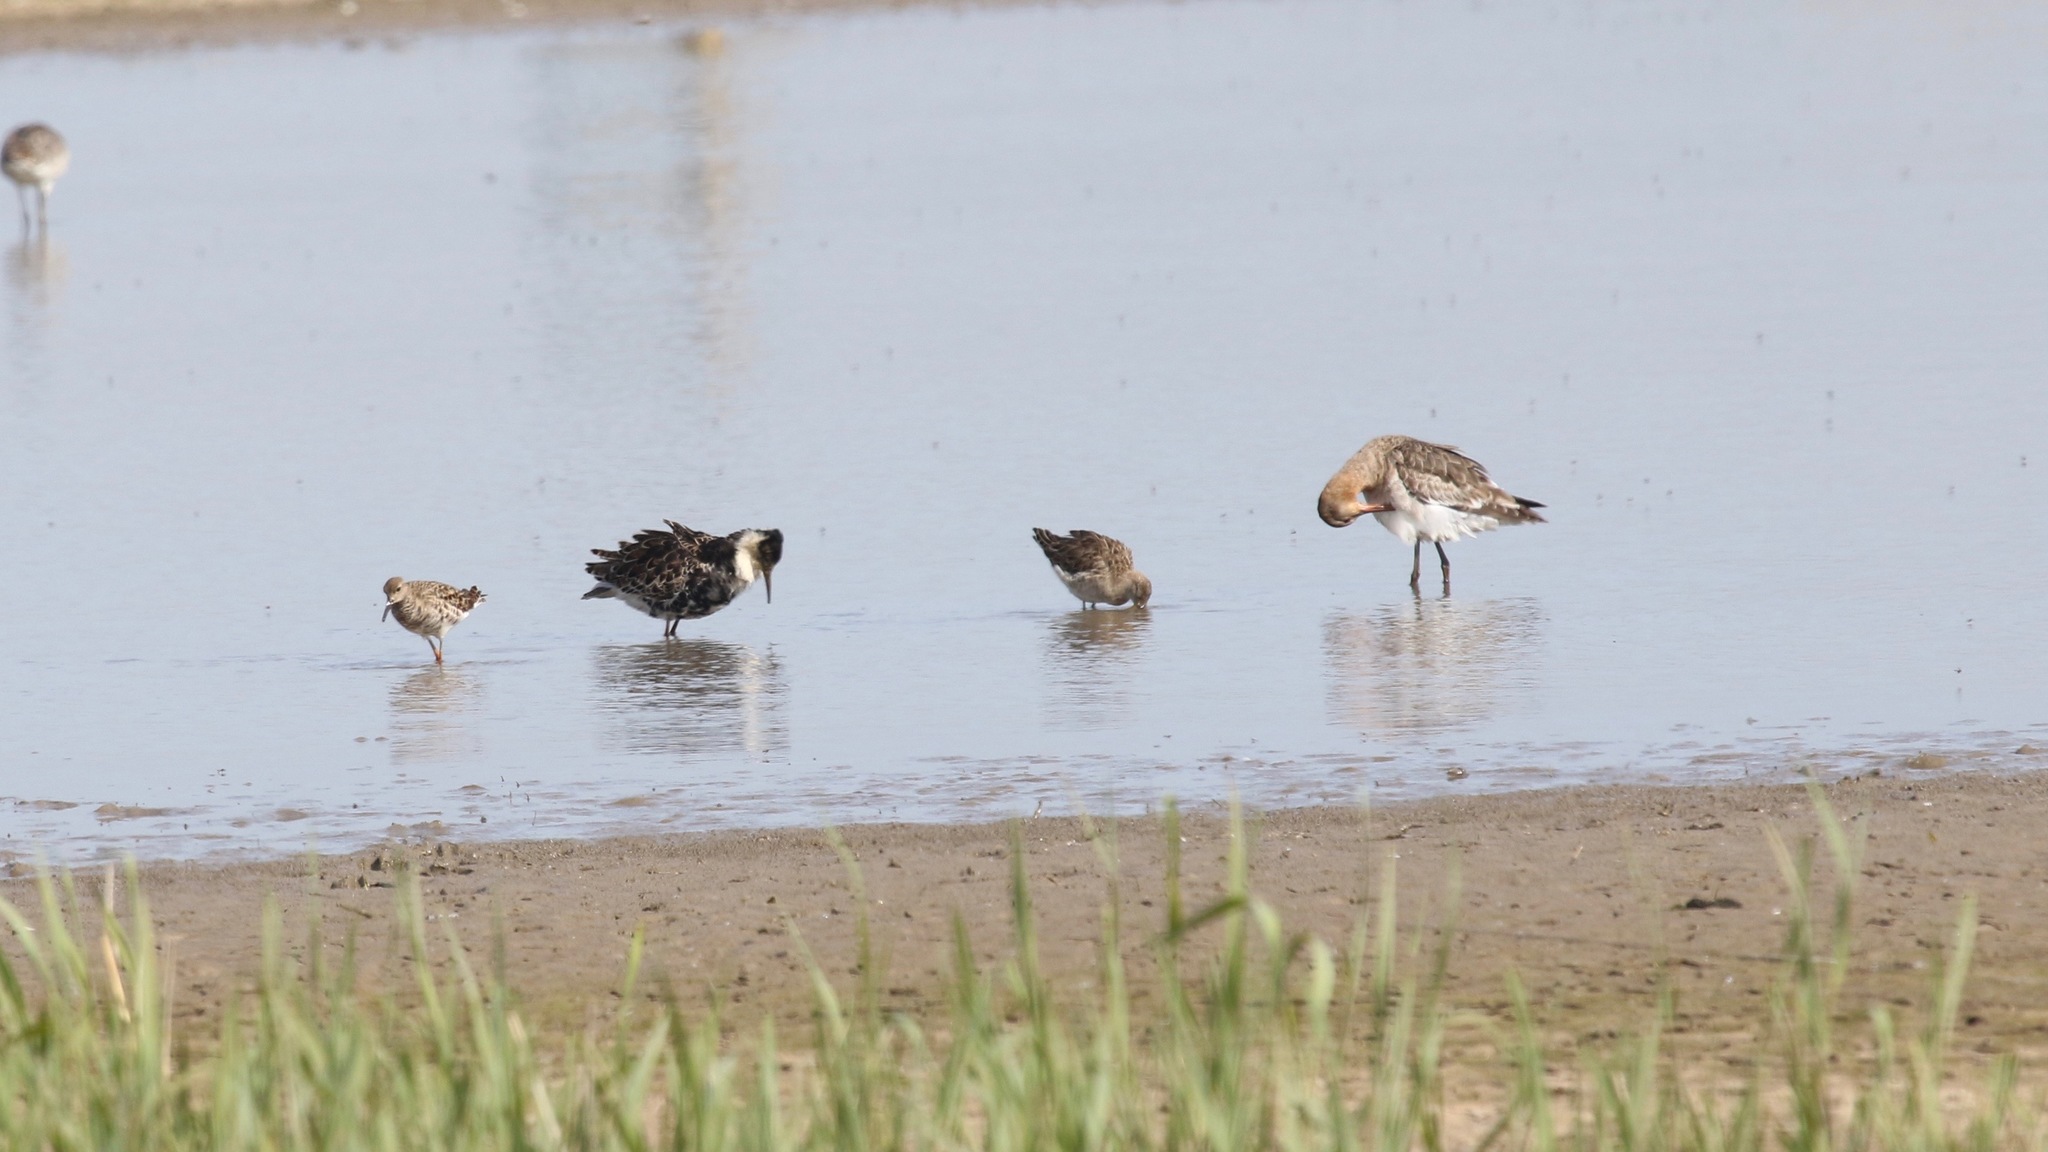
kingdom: Animalia
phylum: Chordata
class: Aves
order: Charadriiformes
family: Scolopacidae
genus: Calidris
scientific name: Calidris pugnax
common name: Ruff
